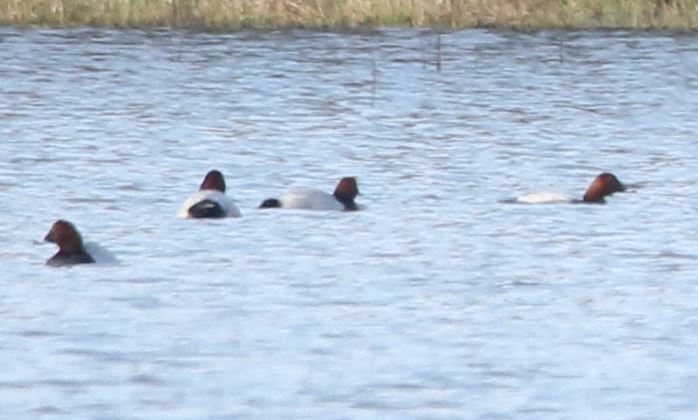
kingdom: Animalia
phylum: Chordata
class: Aves
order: Anseriformes
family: Anatidae
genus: Aythya
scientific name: Aythya ferina
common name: Common pochard
